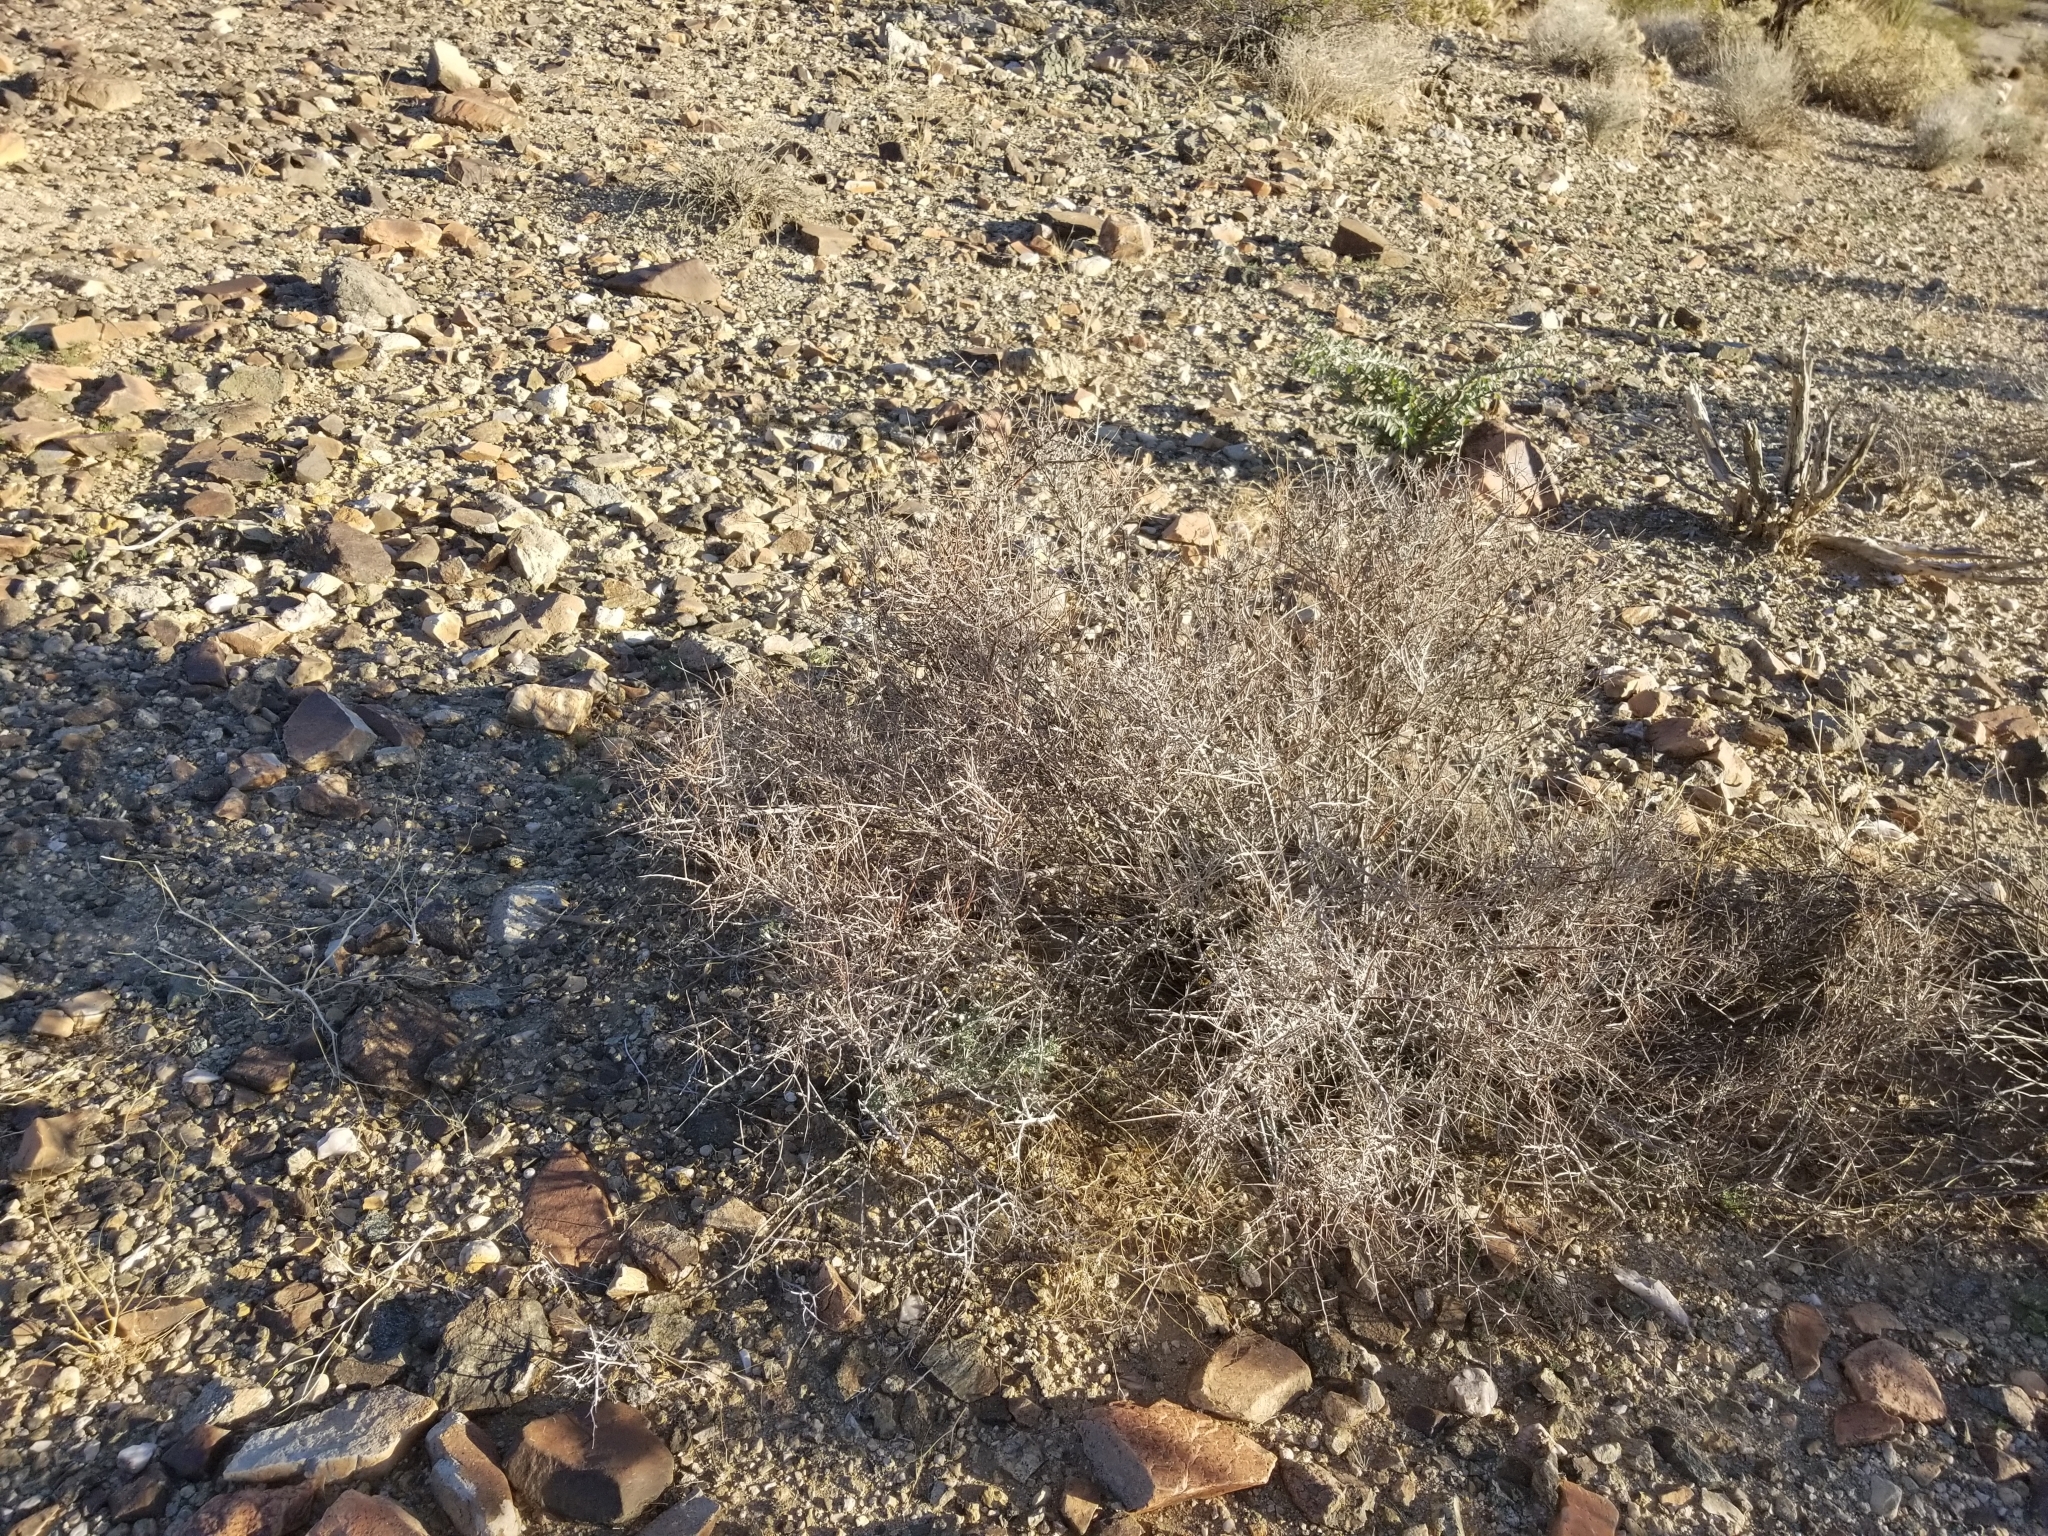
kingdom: Plantae
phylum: Tracheophyta
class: Magnoliopsida
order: Zygophyllales
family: Krameriaceae
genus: Krameria
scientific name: Krameria bicolor
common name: White ratany
